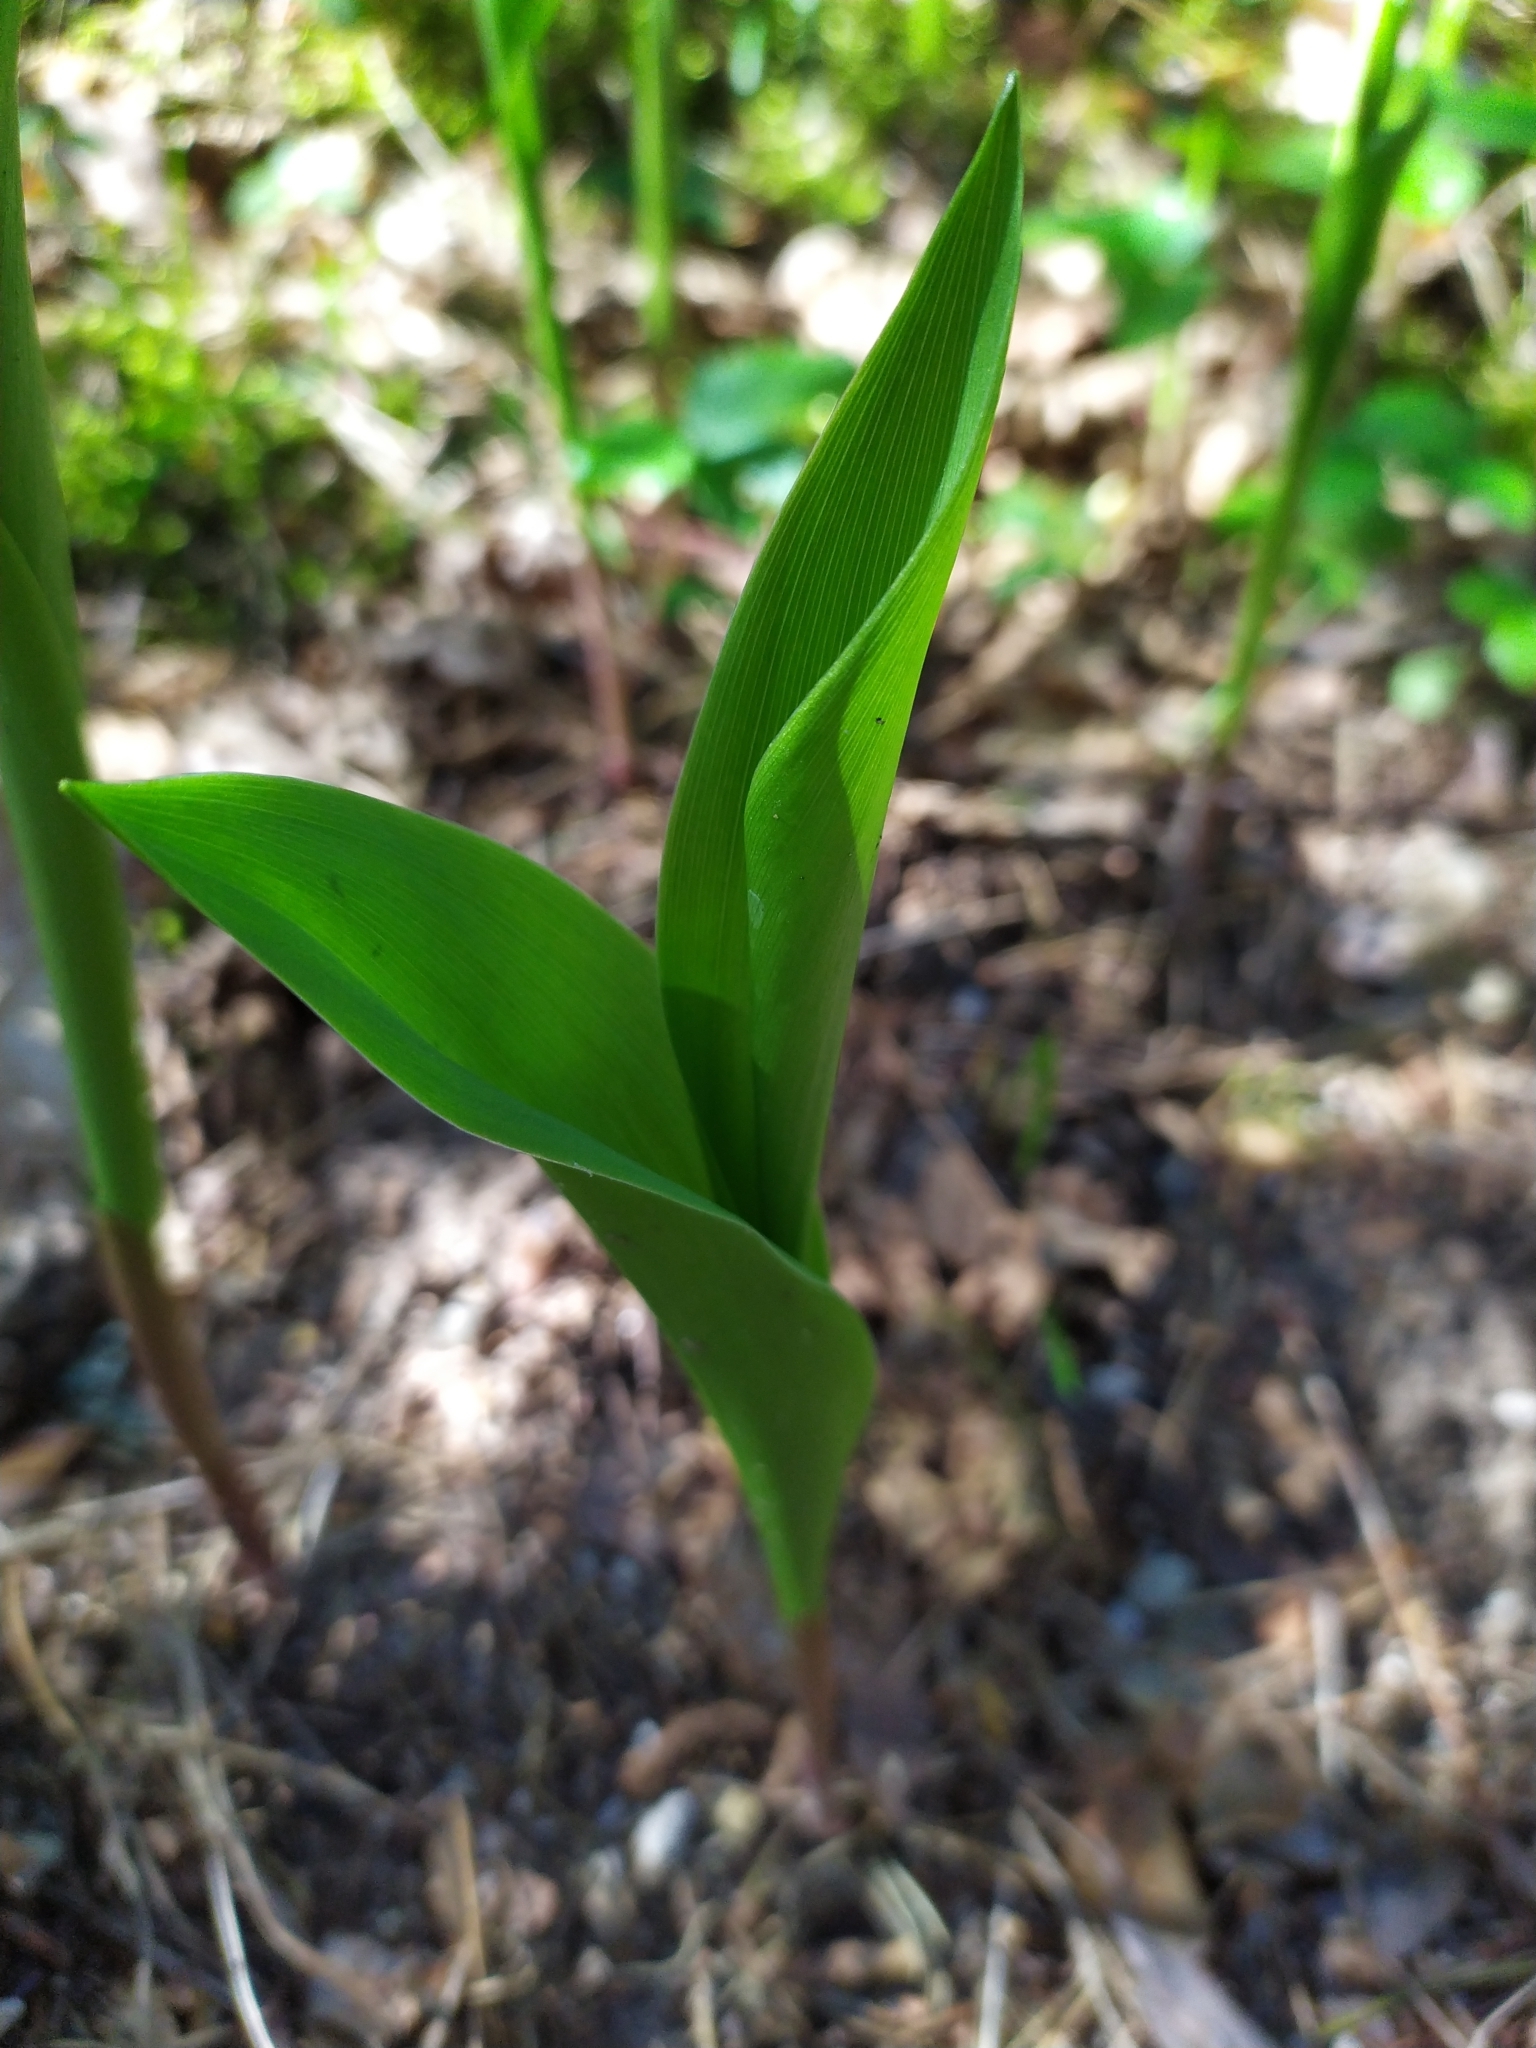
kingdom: Plantae
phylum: Tracheophyta
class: Liliopsida
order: Asparagales
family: Asparagaceae
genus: Convallaria
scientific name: Convallaria majalis
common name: Lily-of-the-valley
